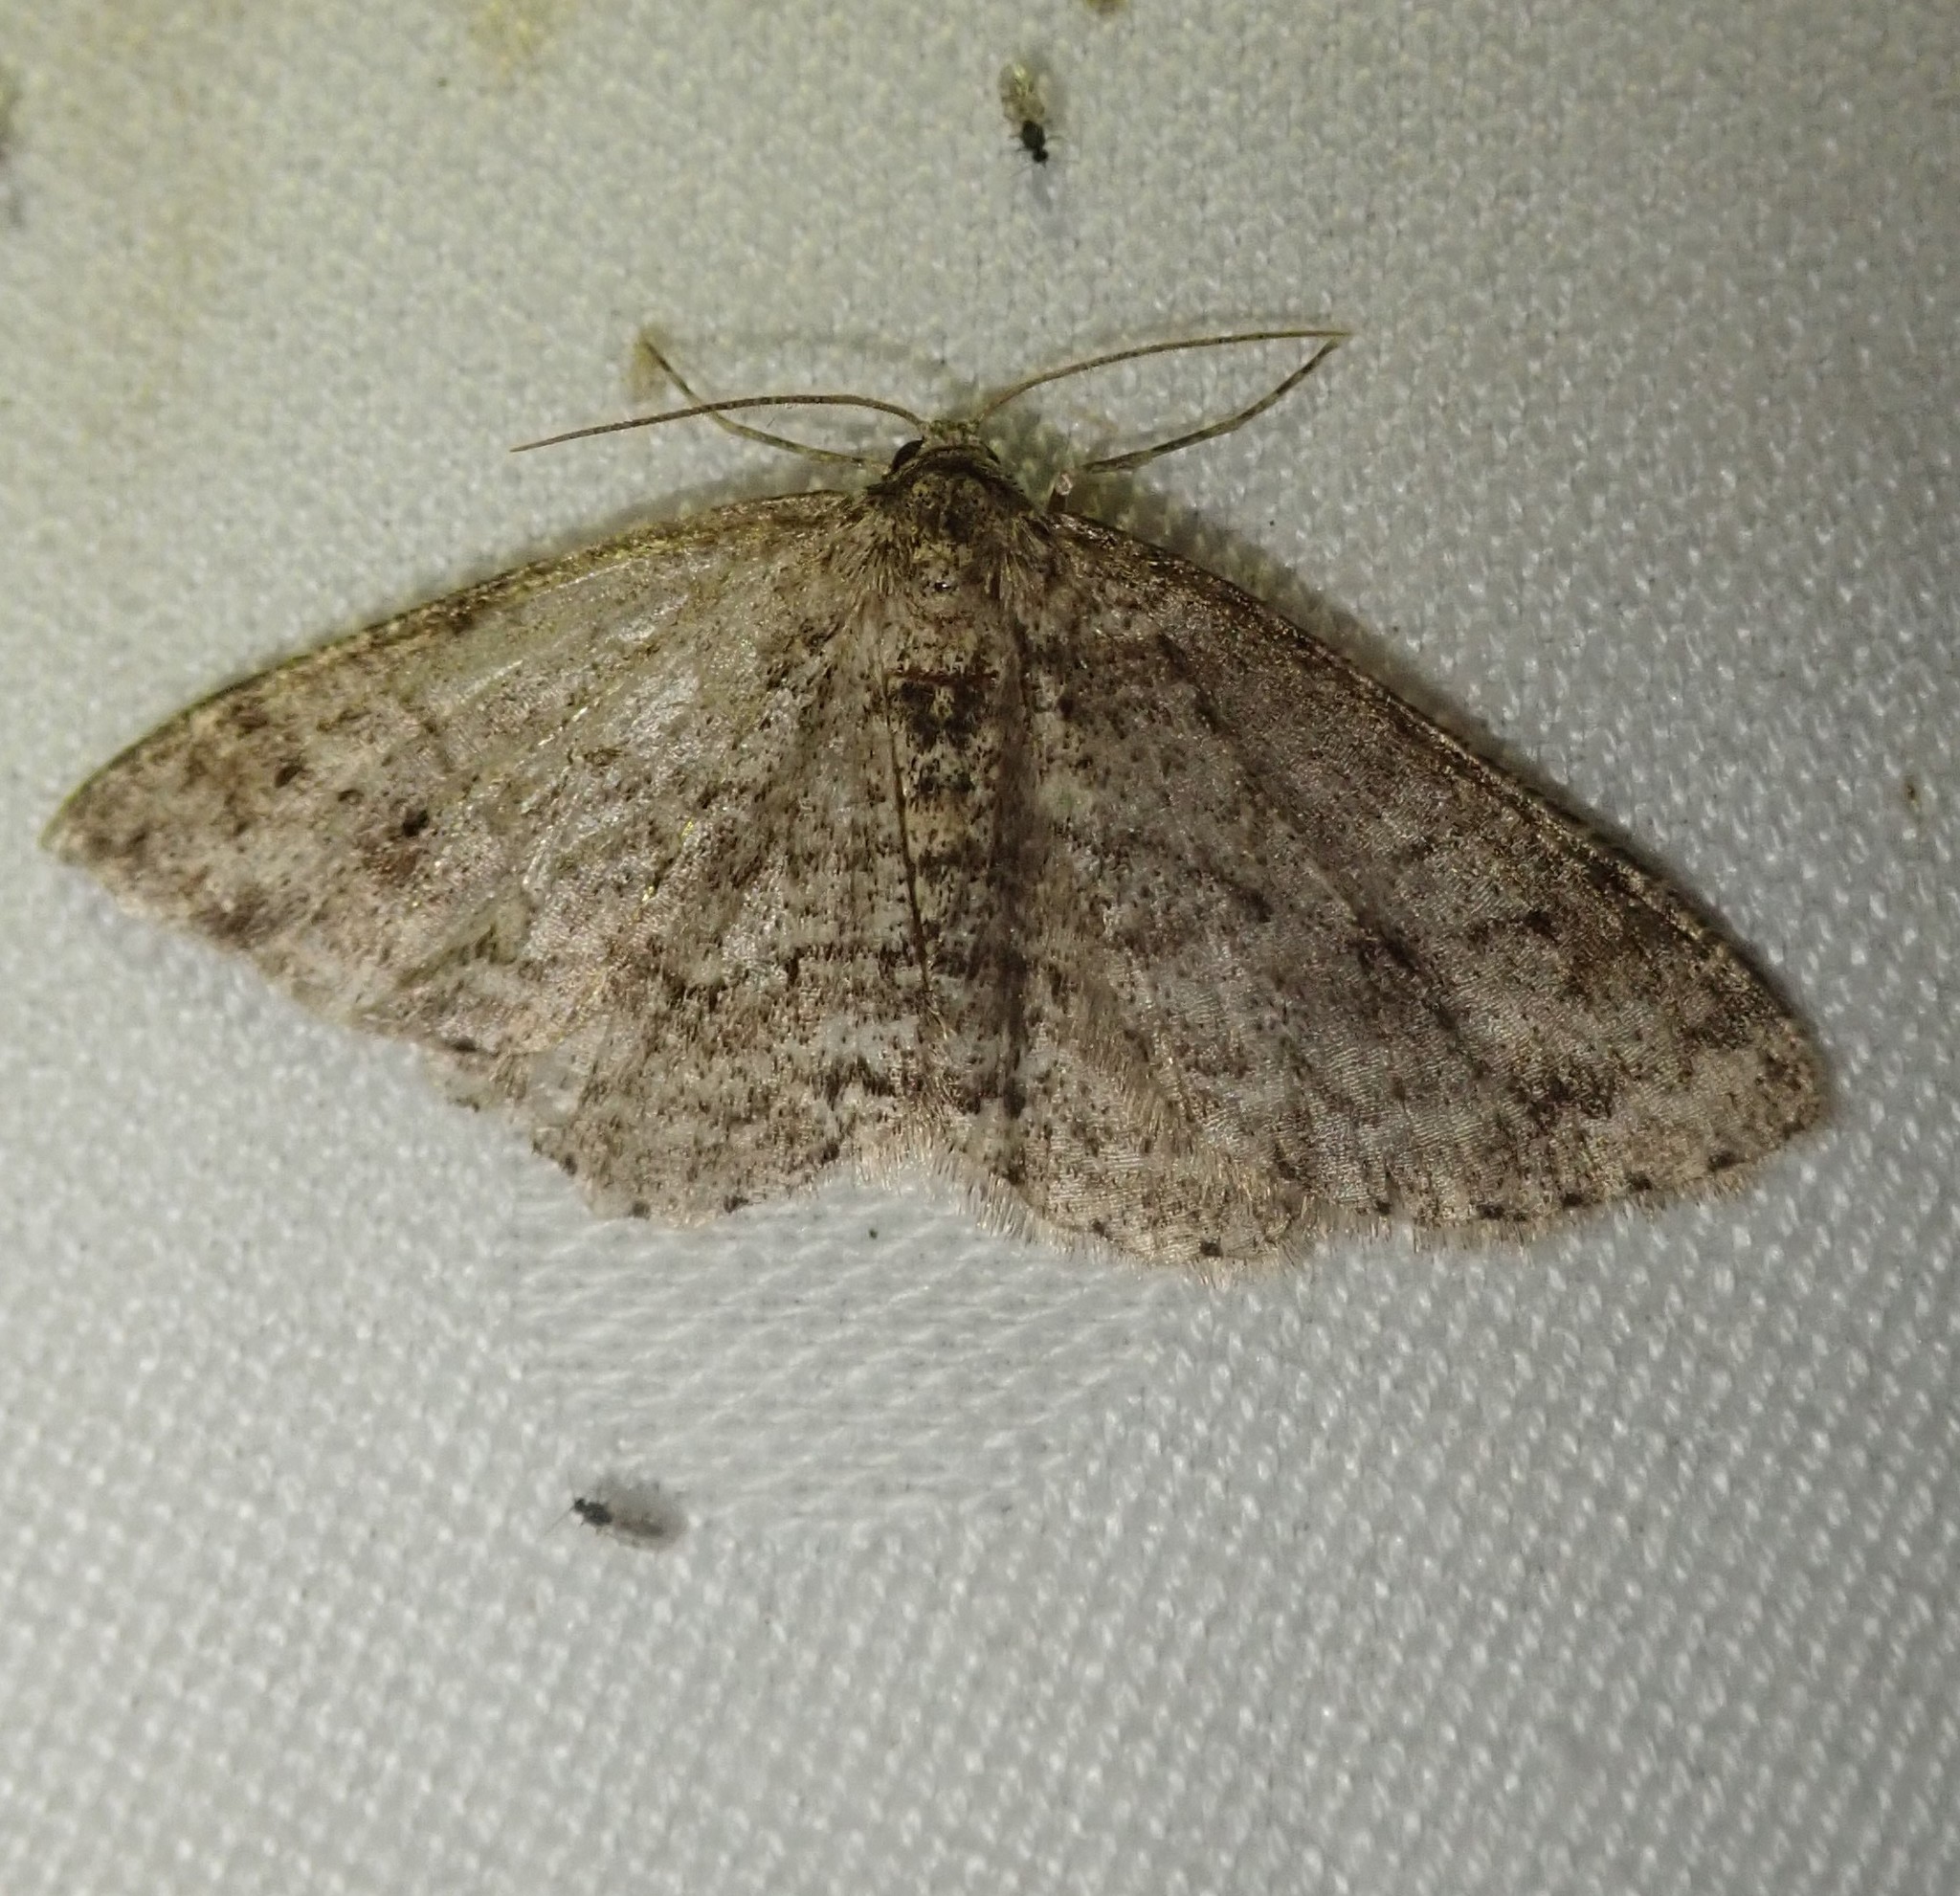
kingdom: Animalia
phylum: Arthropoda
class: Insecta
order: Lepidoptera
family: Geometridae
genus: Ectropis
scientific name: Ectropis crepuscularia
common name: Engrailed
